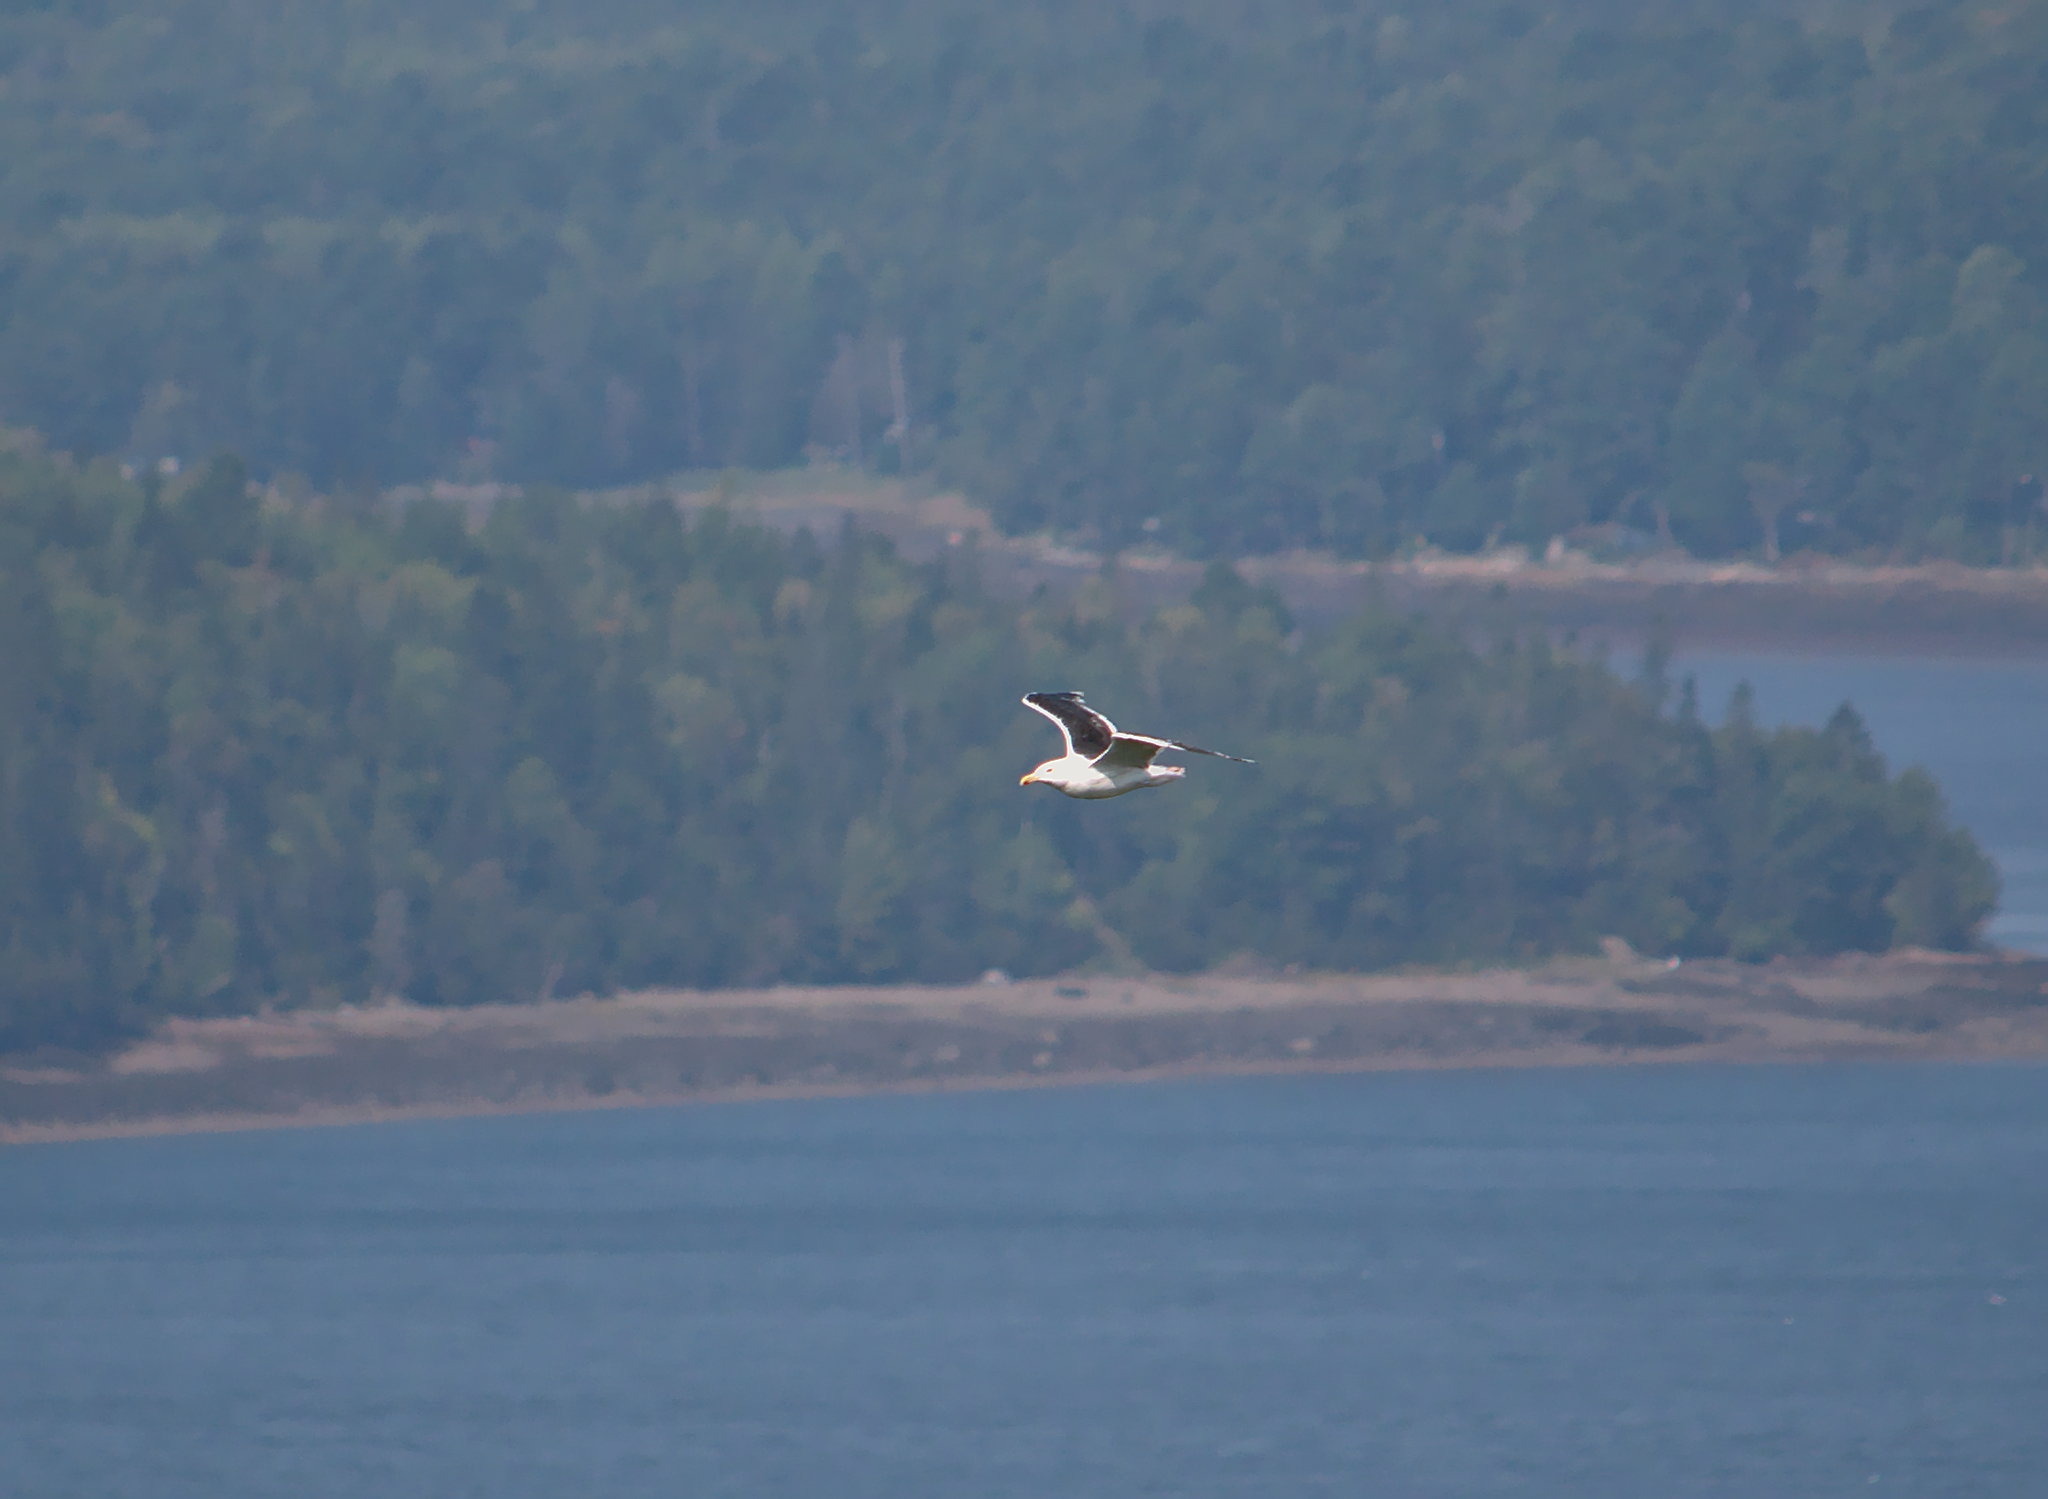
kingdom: Animalia
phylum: Chordata
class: Aves
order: Charadriiformes
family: Laridae
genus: Larus
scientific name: Larus marinus
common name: Great black-backed gull
